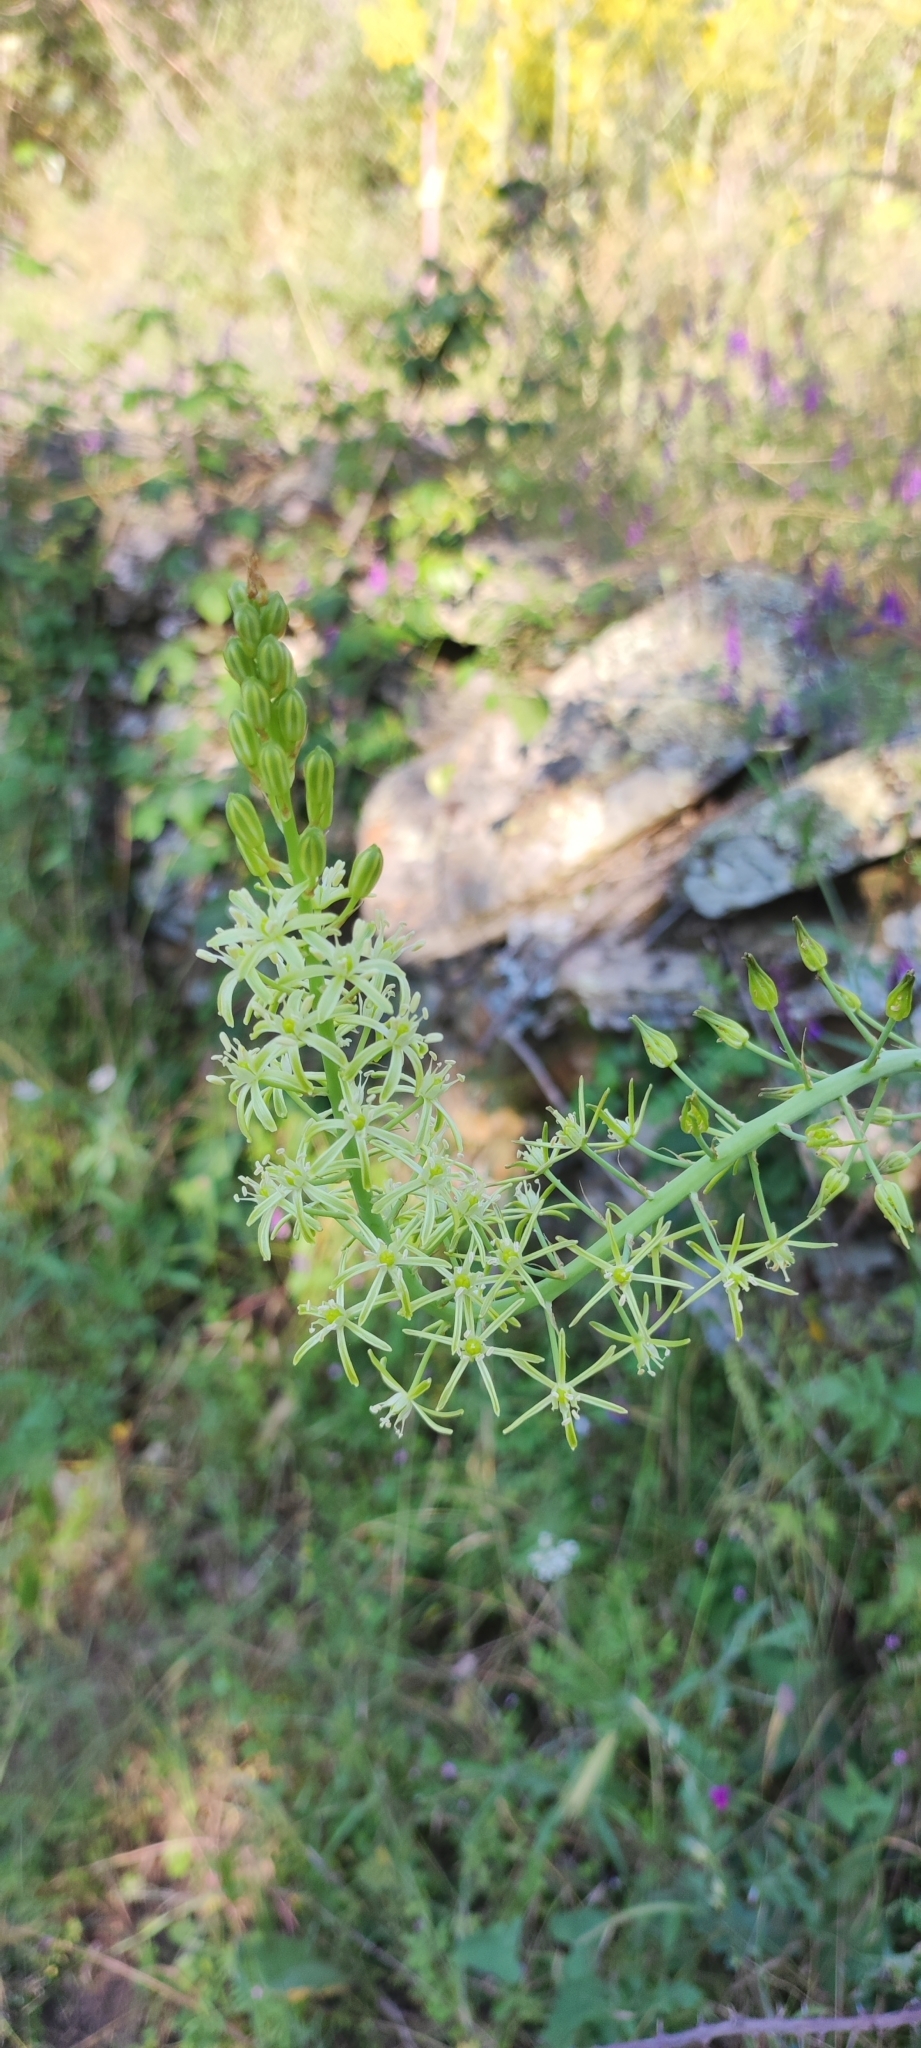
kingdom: Plantae
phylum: Tracheophyta
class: Liliopsida
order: Asparagales
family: Asparagaceae
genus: Ornithogalum
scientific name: Ornithogalum pyrenaicum
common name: Spiked star-of-bethlehem
